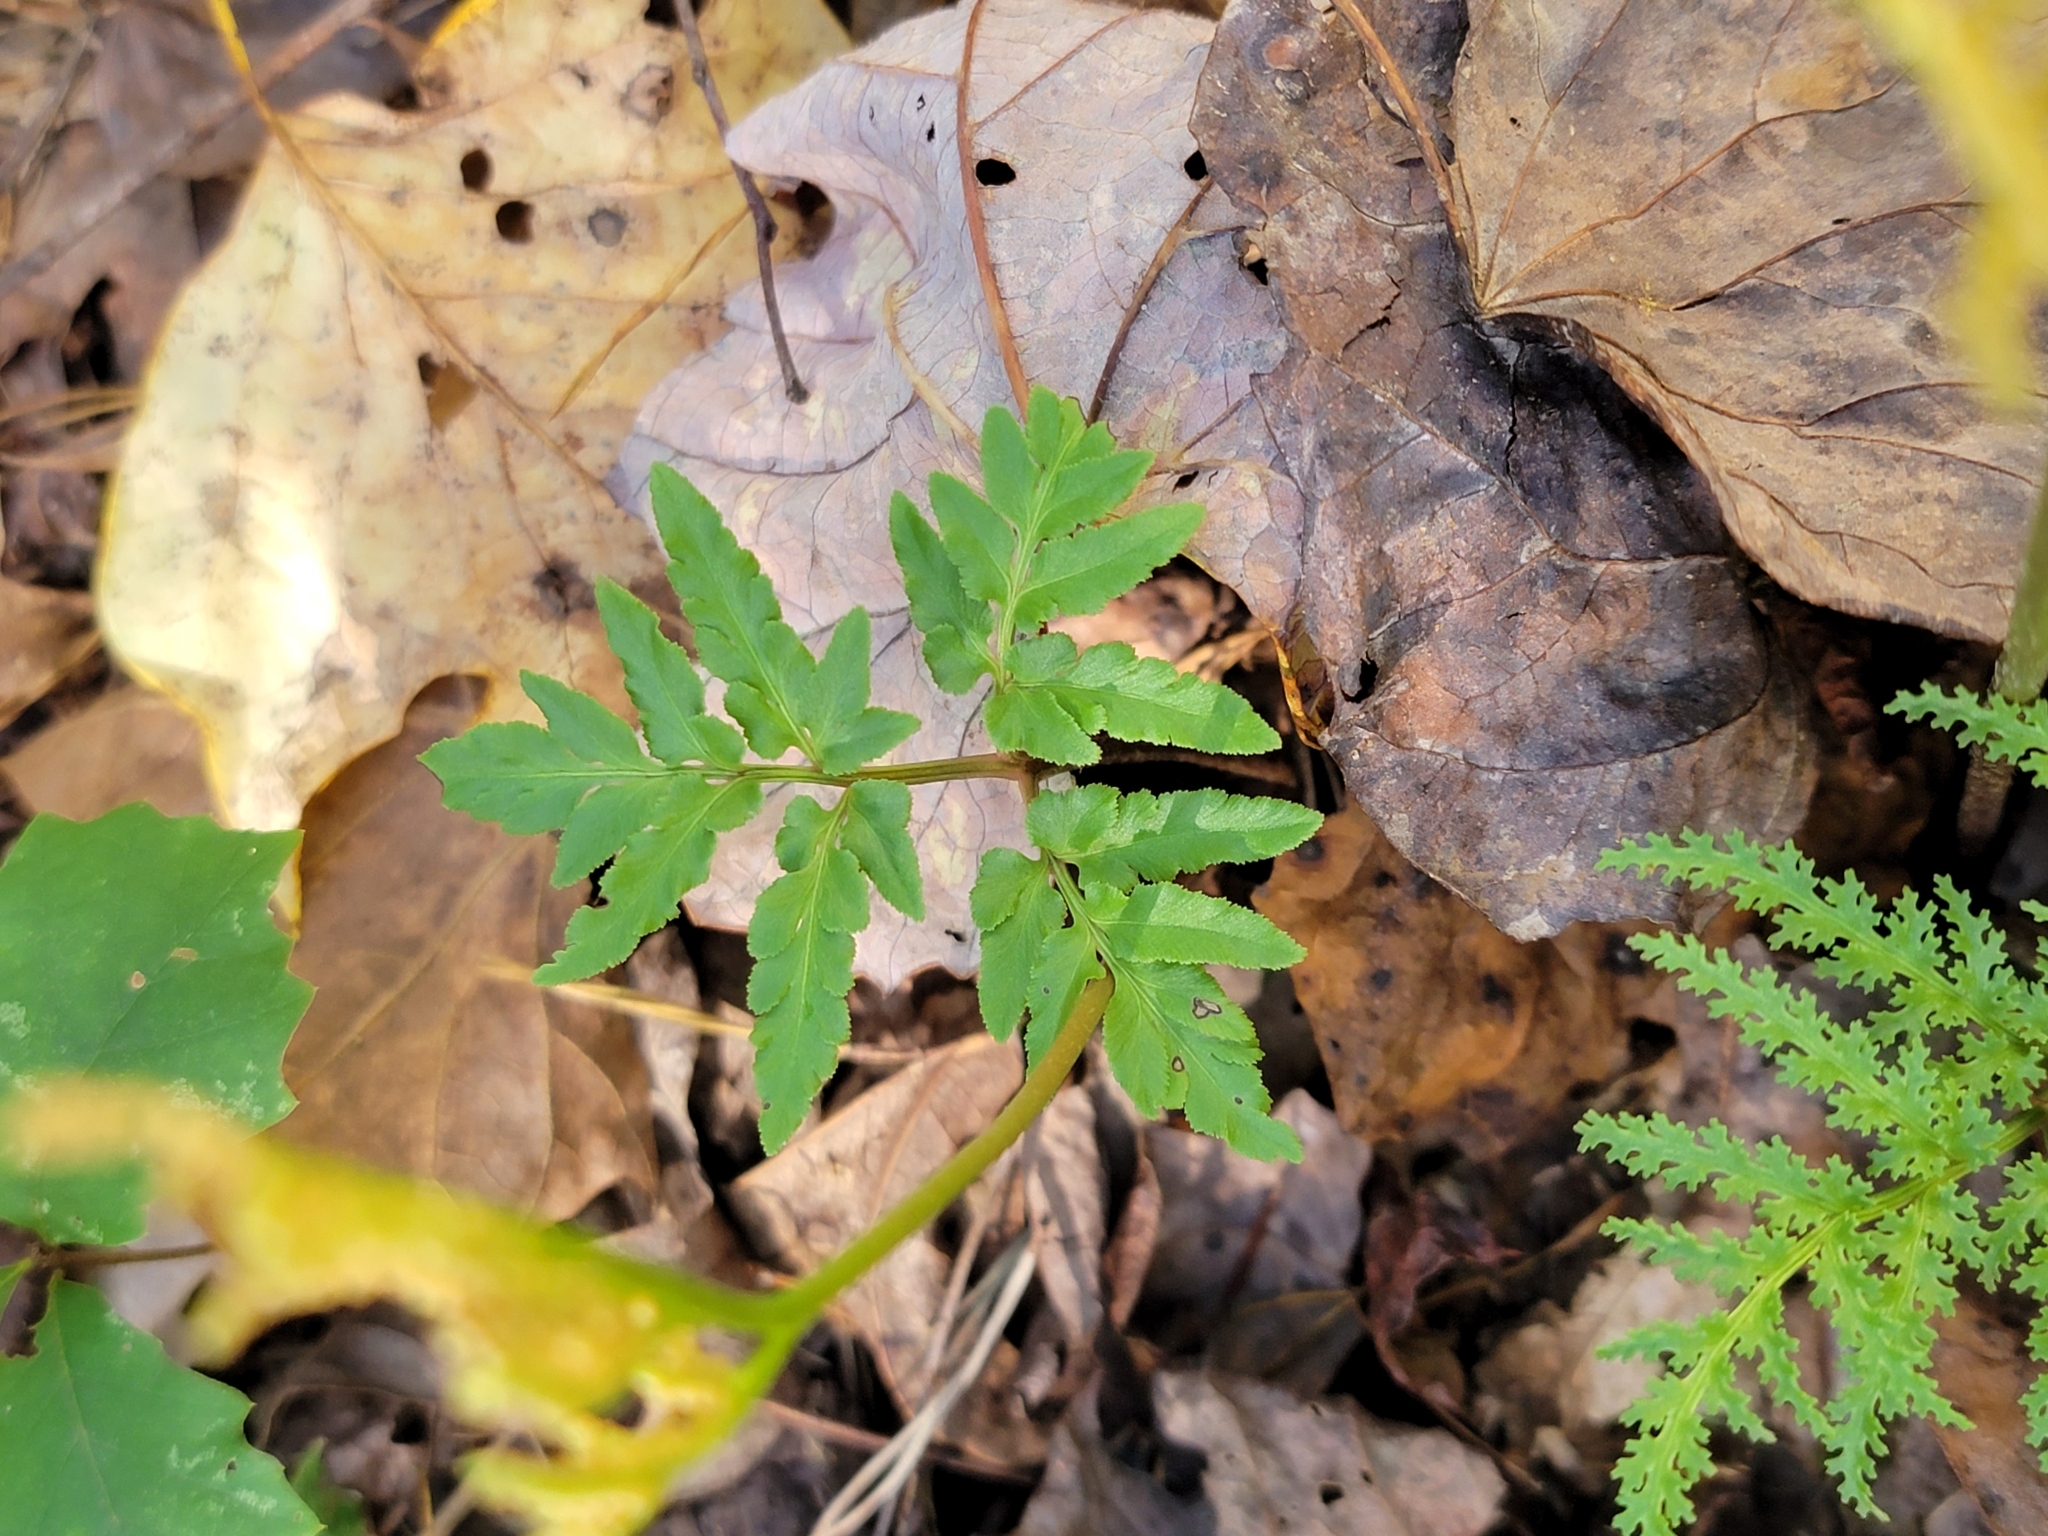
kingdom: Plantae
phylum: Tracheophyta
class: Polypodiopsida
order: Ophioglossales
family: Ophioglossaceae
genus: Sceptridium
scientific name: Sceptridium dissectum
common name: Cut-leaved grapefern
